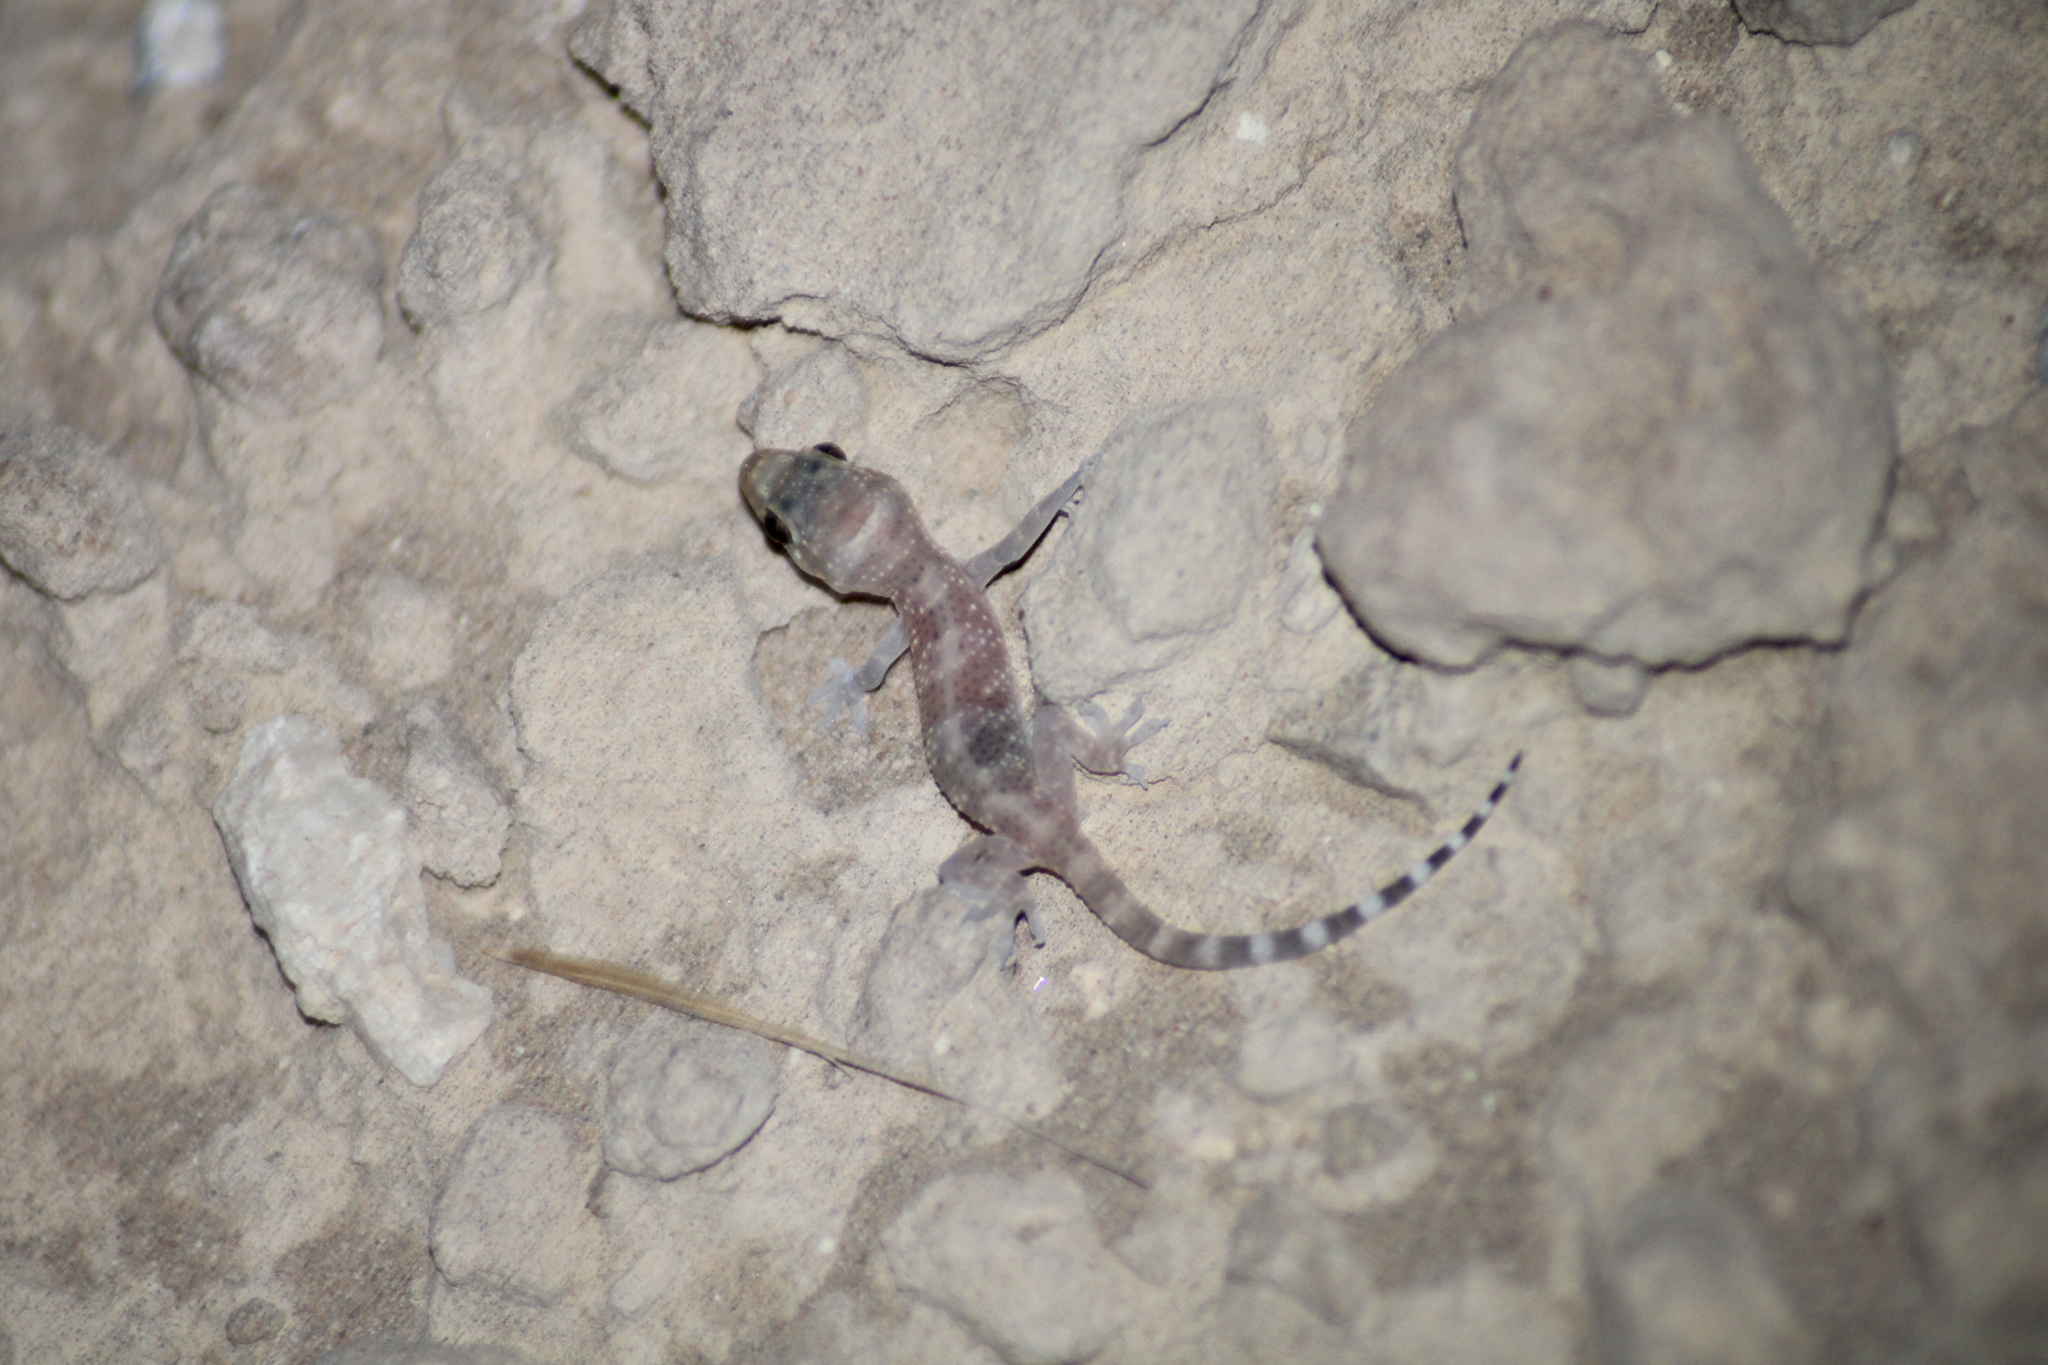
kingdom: Animalia
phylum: Chordata
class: Squamata
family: Gekkonidae
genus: Hemidactylus
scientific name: Hemidactylus turcicus
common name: Turkish gecko
